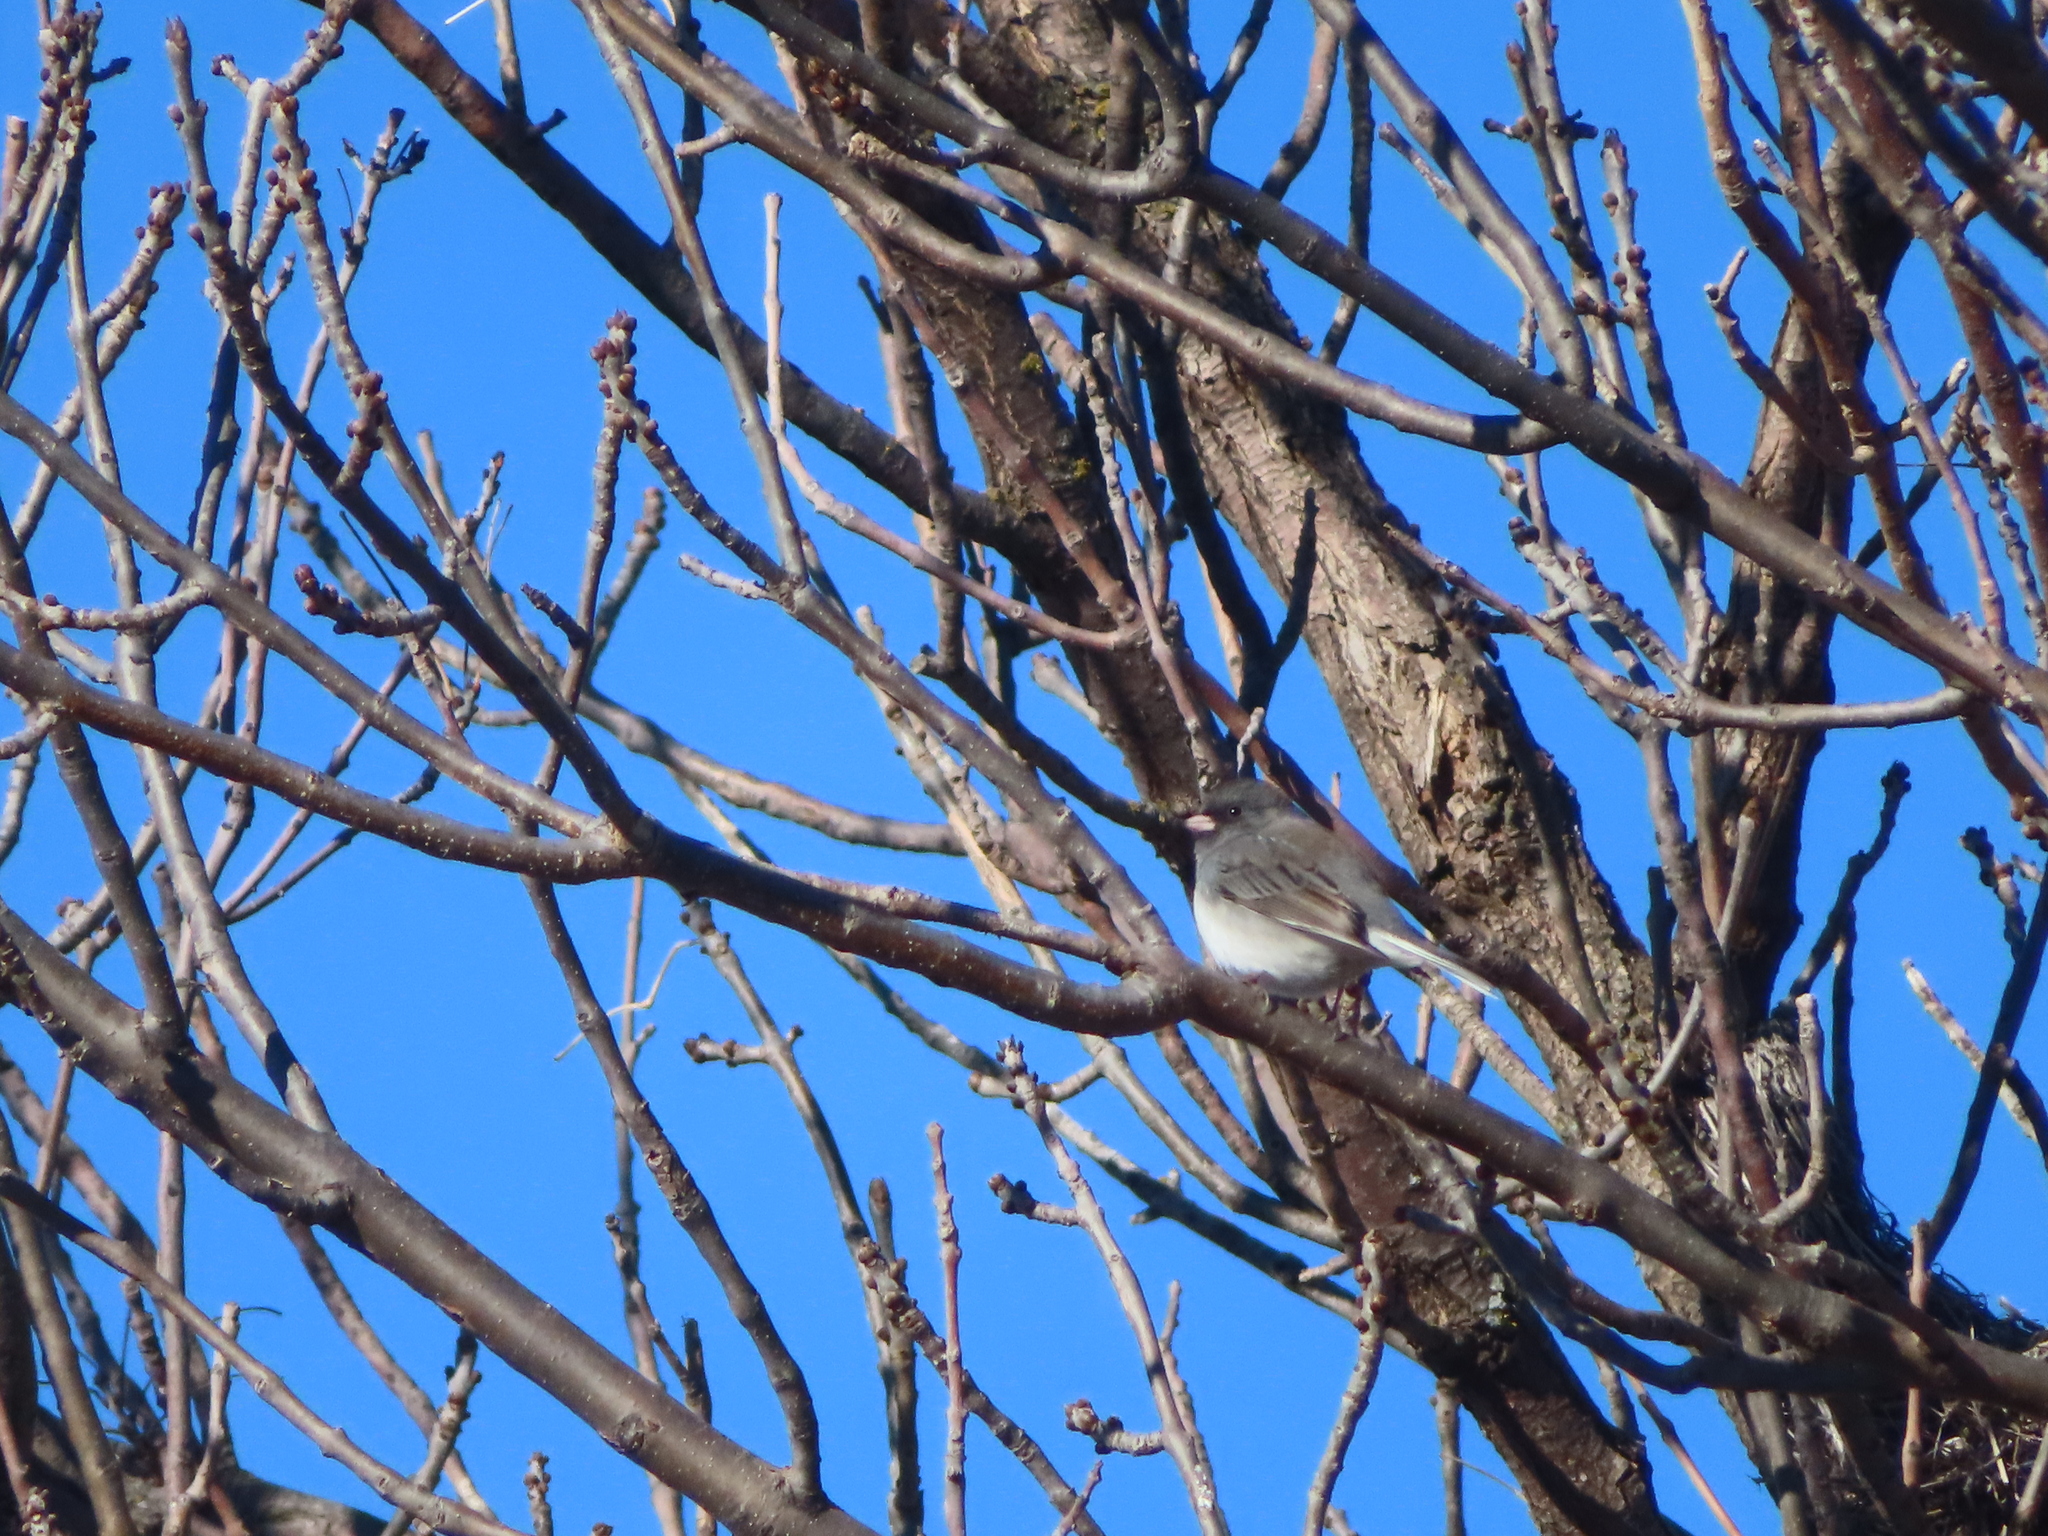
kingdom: Animalia
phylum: Chordata
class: Aves
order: Passeriformes
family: Passerellidae
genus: Junco
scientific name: Junco hyemalis
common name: Dark-eyed junco
